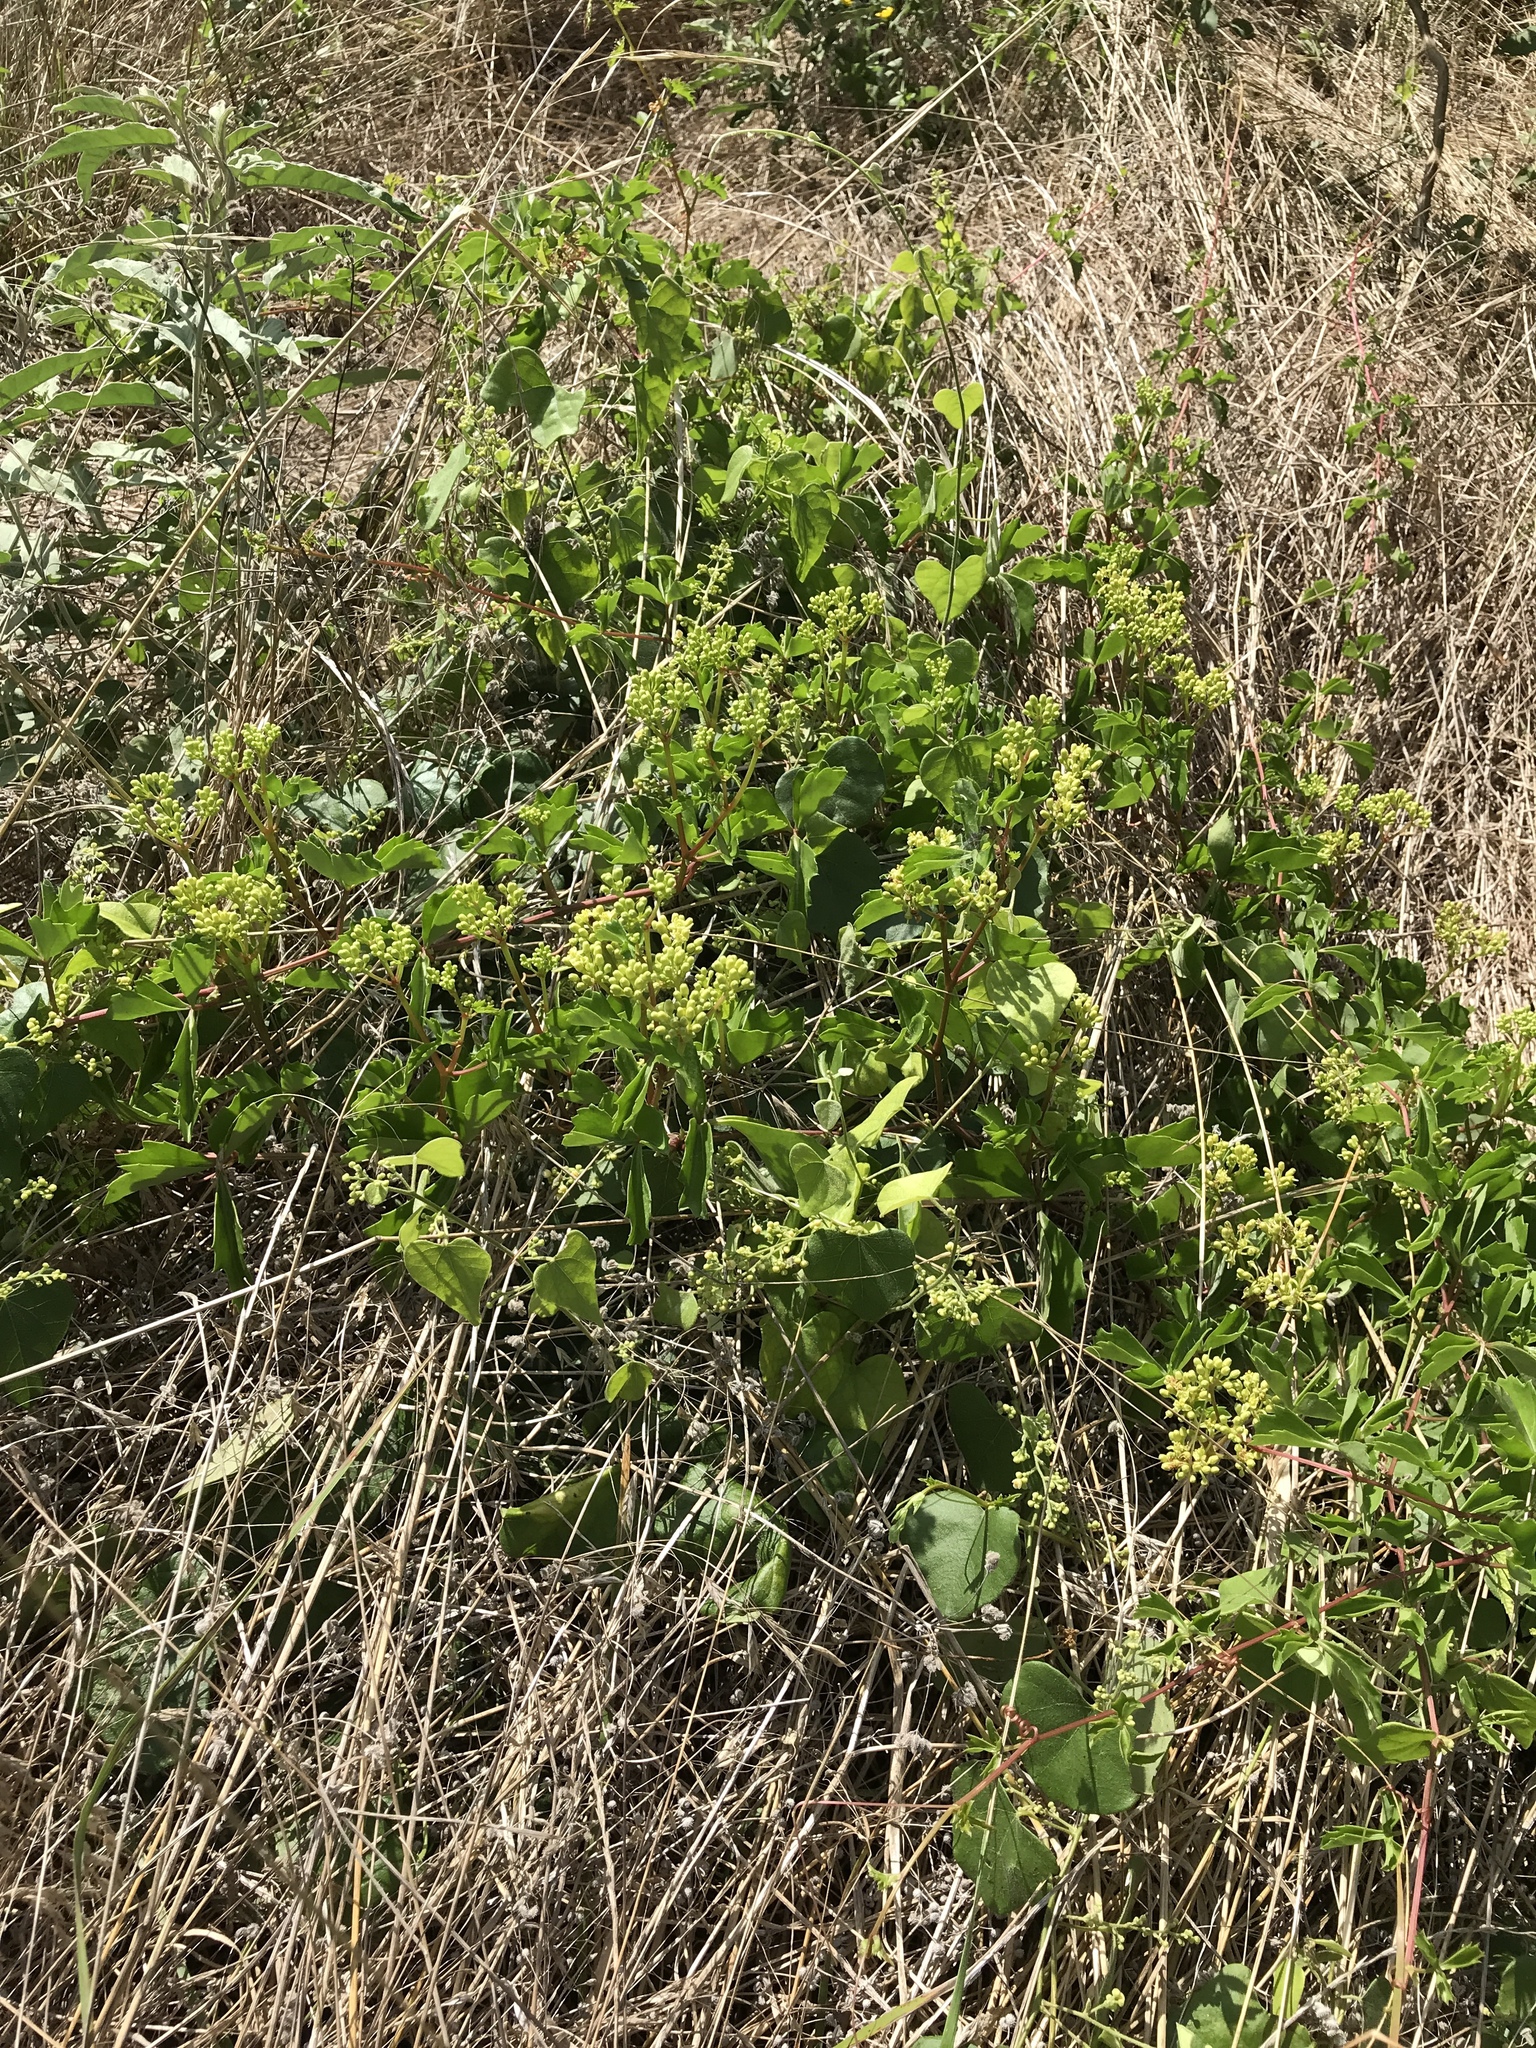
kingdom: Plantae
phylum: Tracheophyta
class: Magnoliopsida
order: Vitales
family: Vitaceae
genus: Cissus
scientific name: Cissus trifoliata
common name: Vine-sorrel
